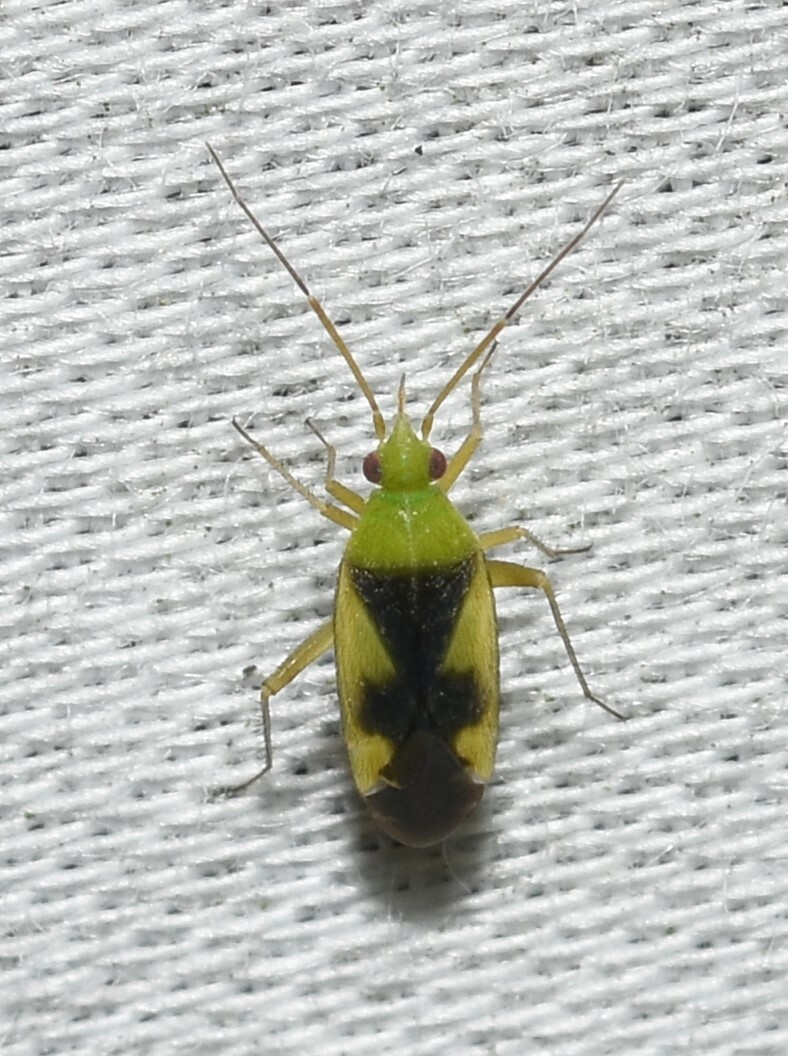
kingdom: Animalia
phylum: Arthropoda
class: Insecta
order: Hemiptera
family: Miridae
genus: Reuteroscopus
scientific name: Reuteroscopus ornatus
